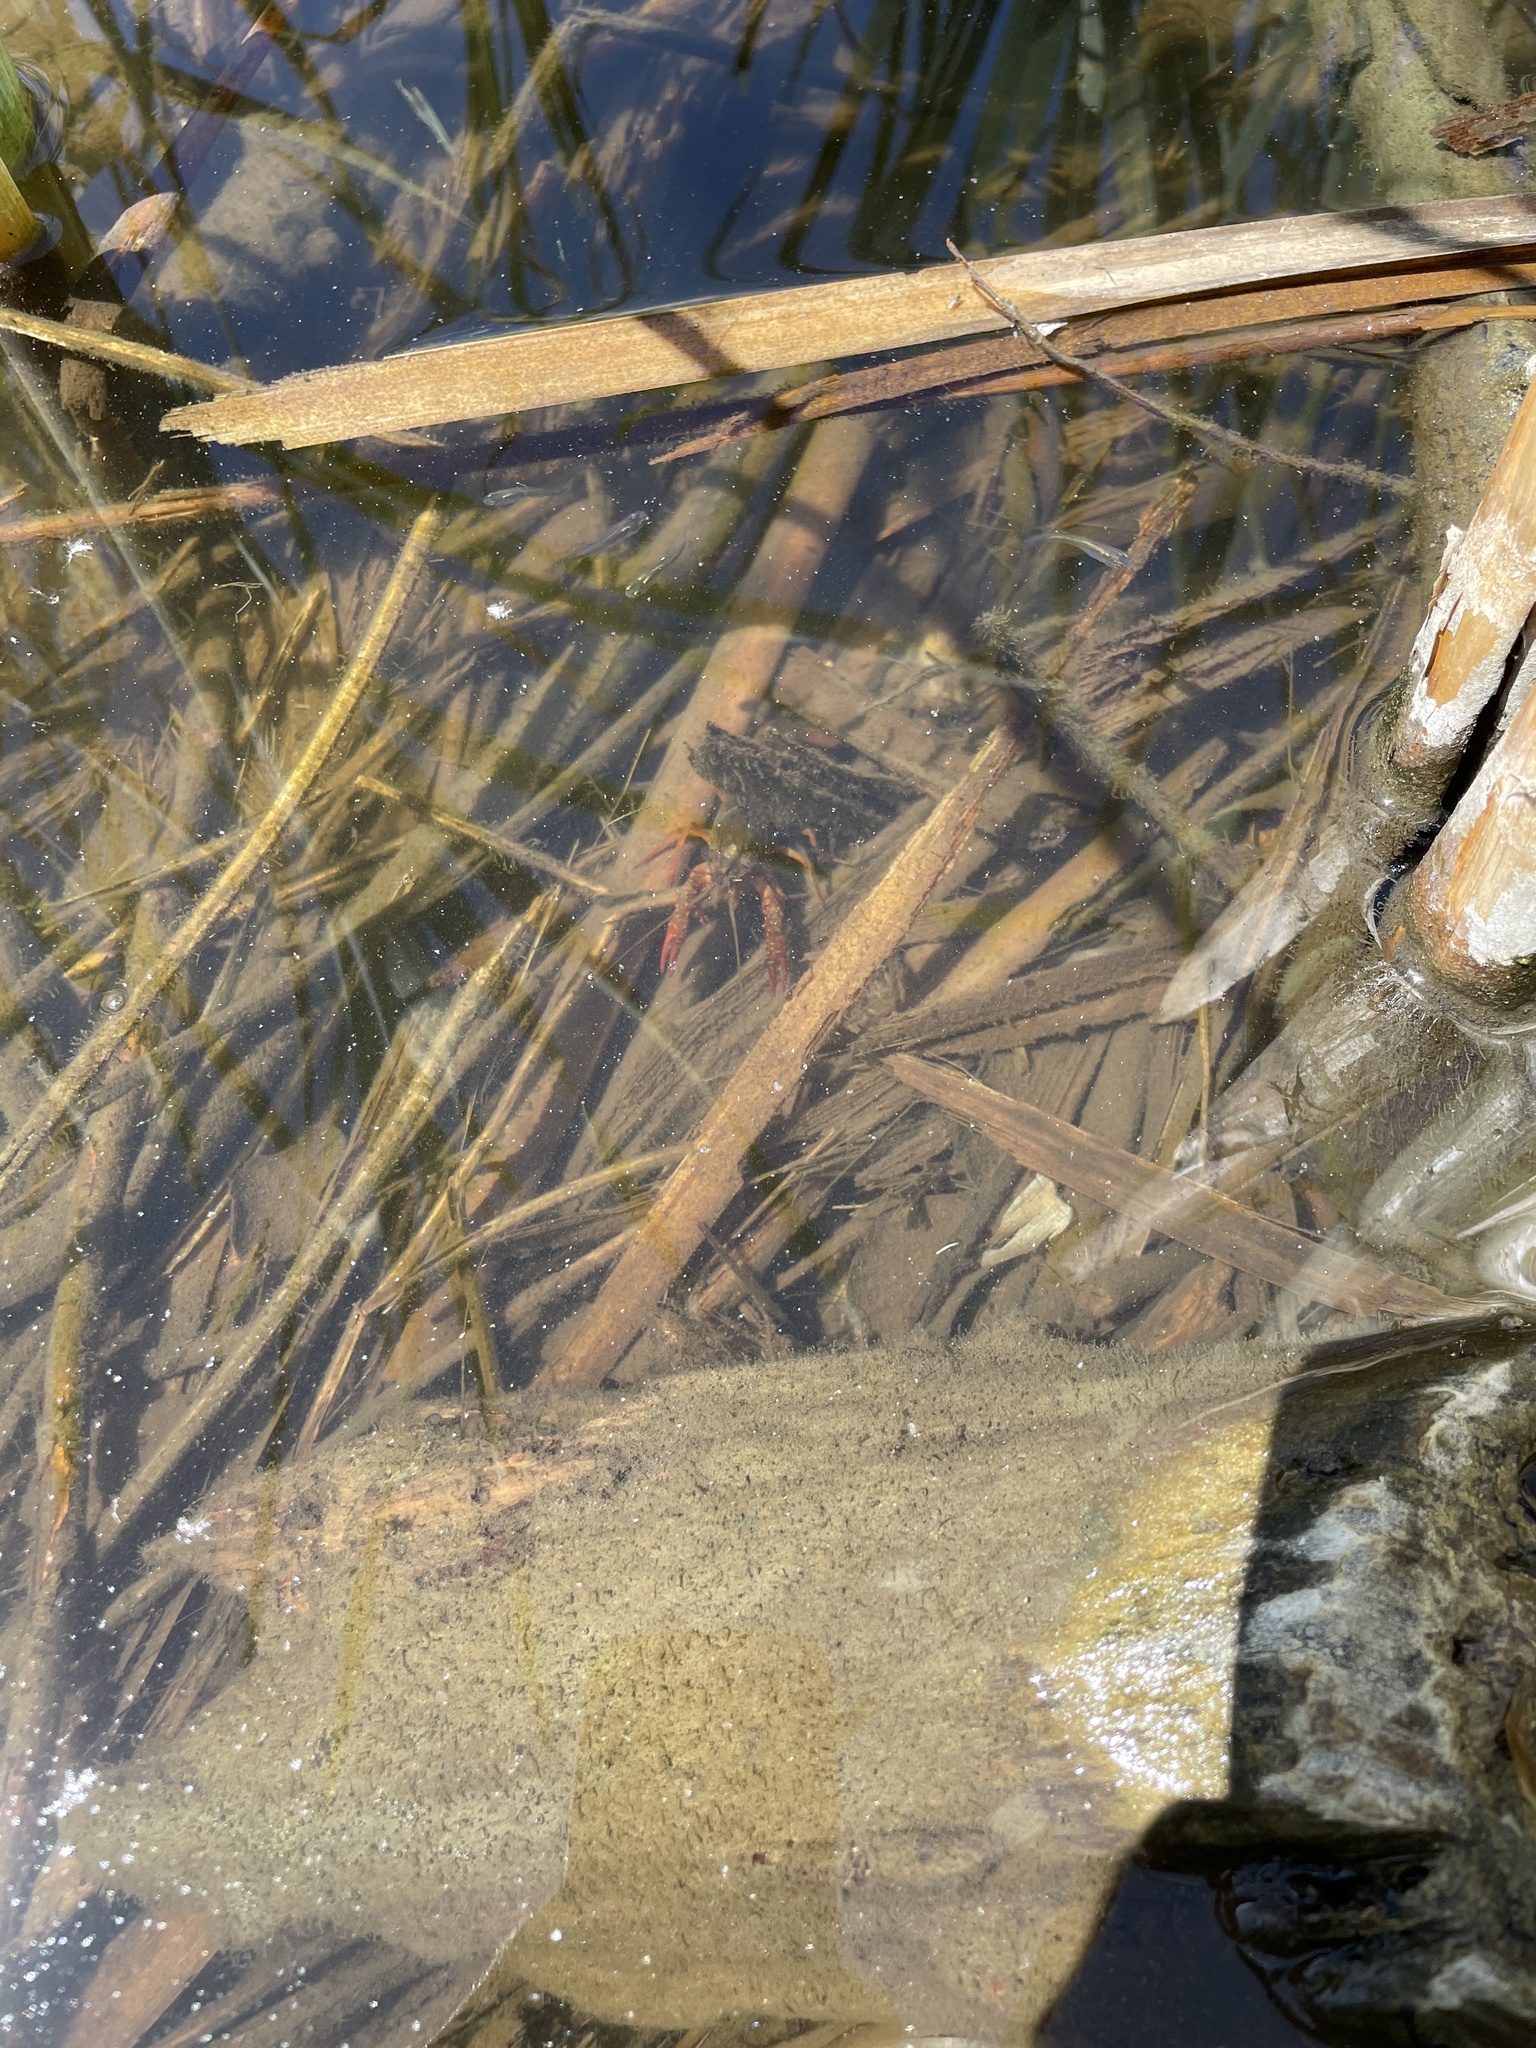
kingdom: Animalia
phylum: Arthropoda
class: Malacostraca
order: Decapoda
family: Cambaridae
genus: Procambarus
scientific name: Procambarus clarkii
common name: Red swamp crayfish
